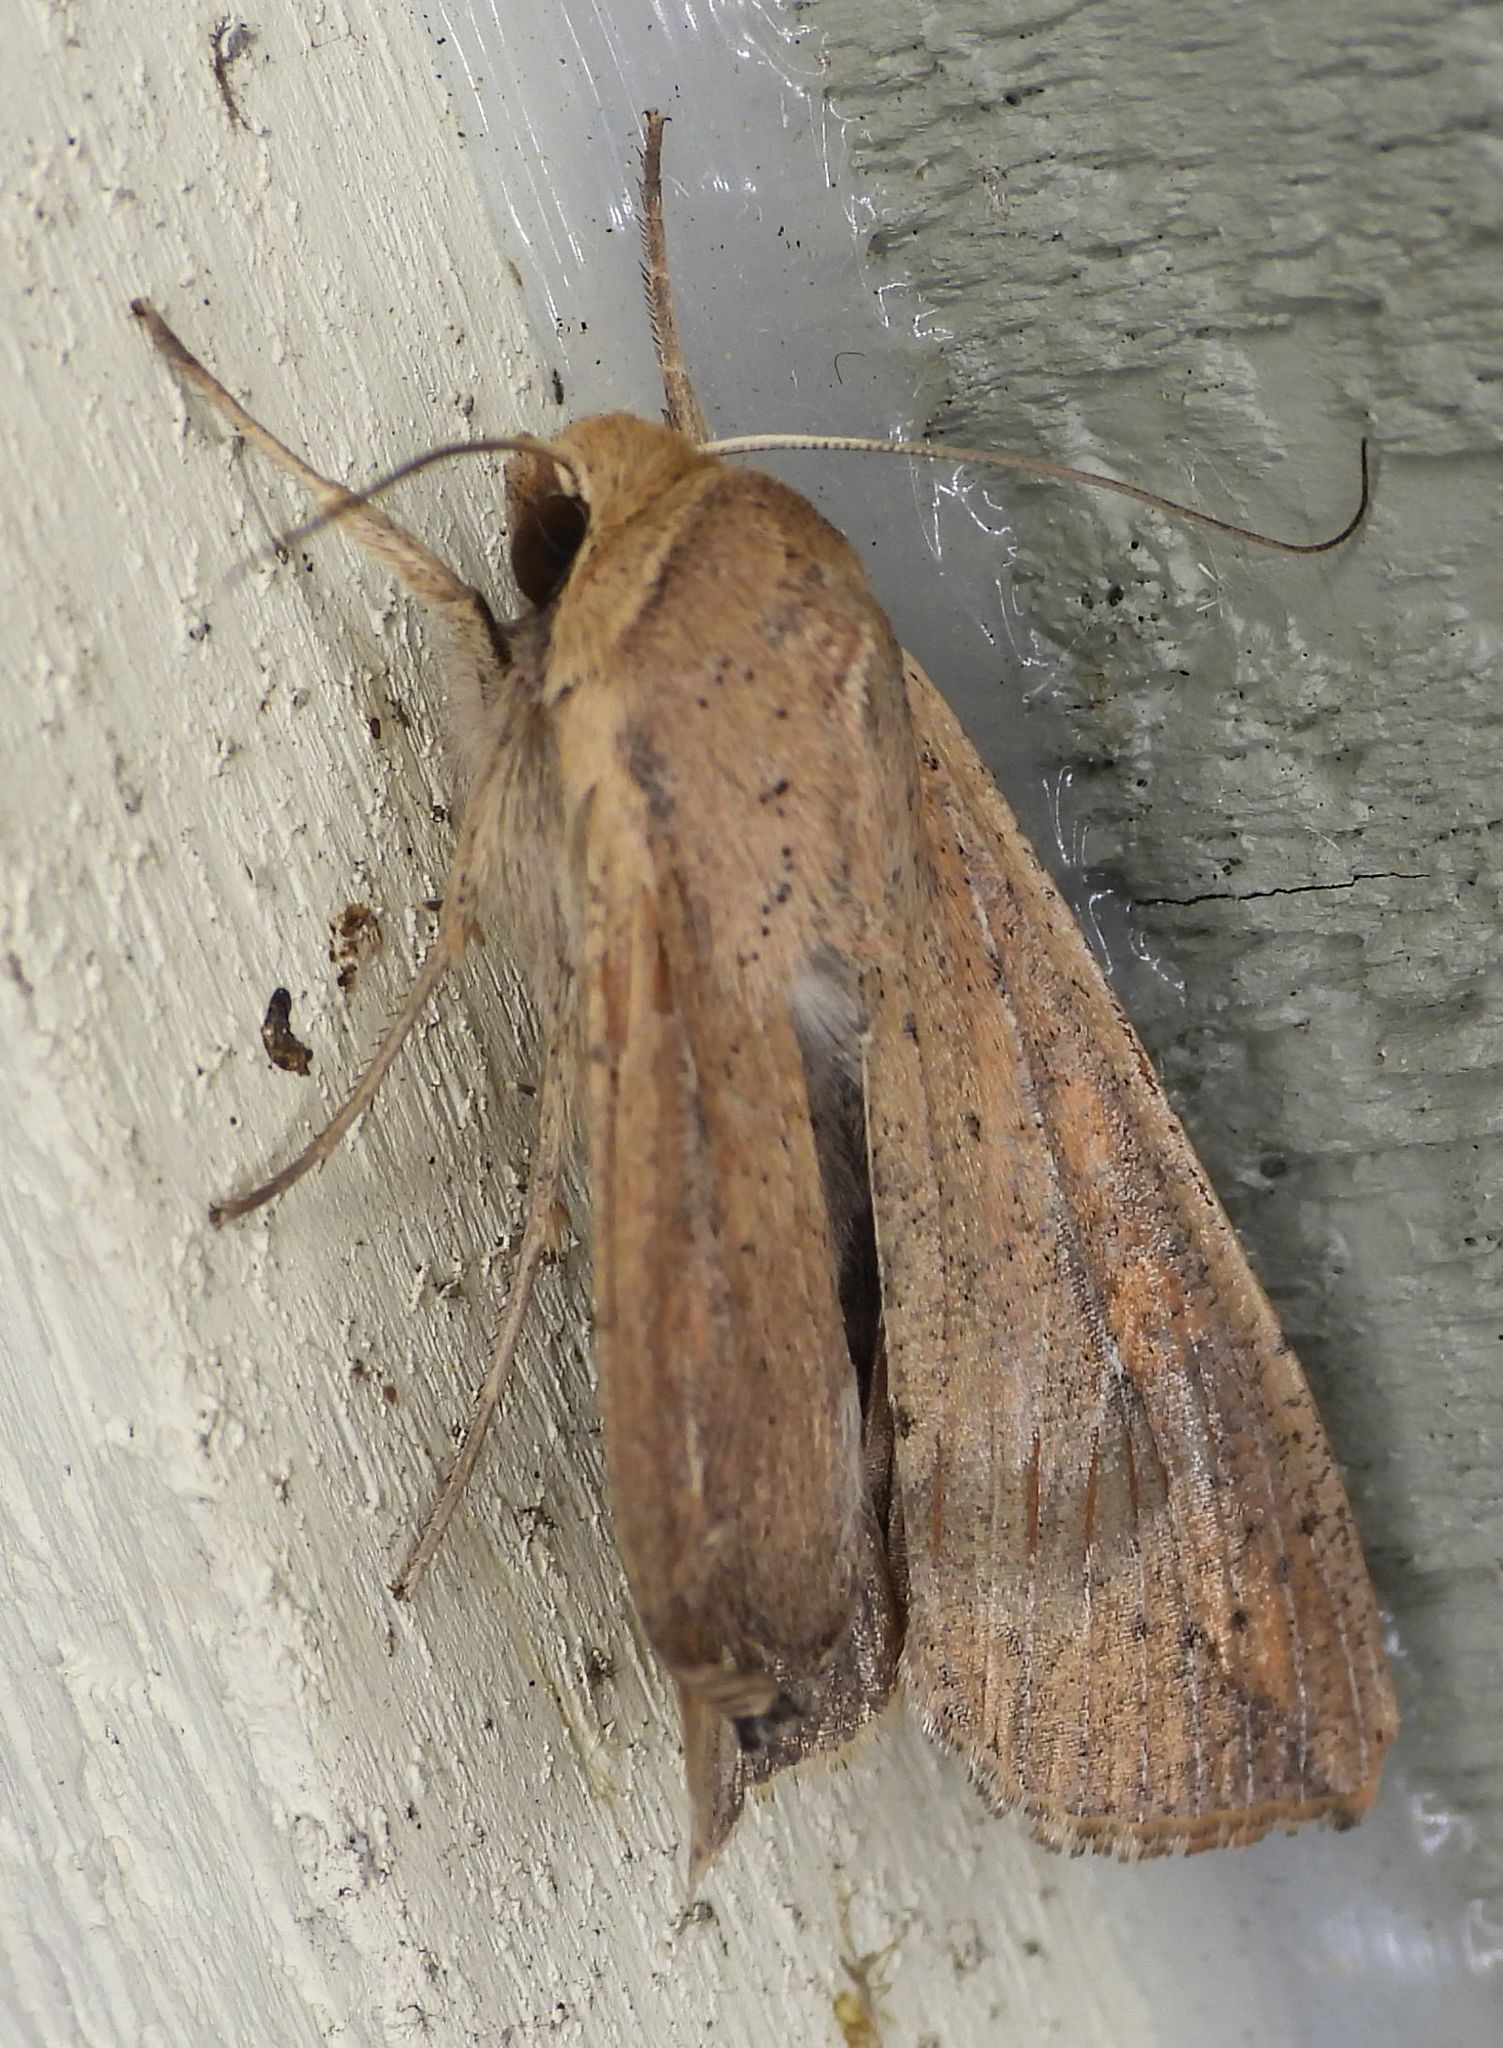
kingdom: Animalia
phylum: Arthropoda
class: Insecta
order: Lepidoptera
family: Noctuidae
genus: Mythimna
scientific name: Mythimna unipuncta
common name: White-speck
